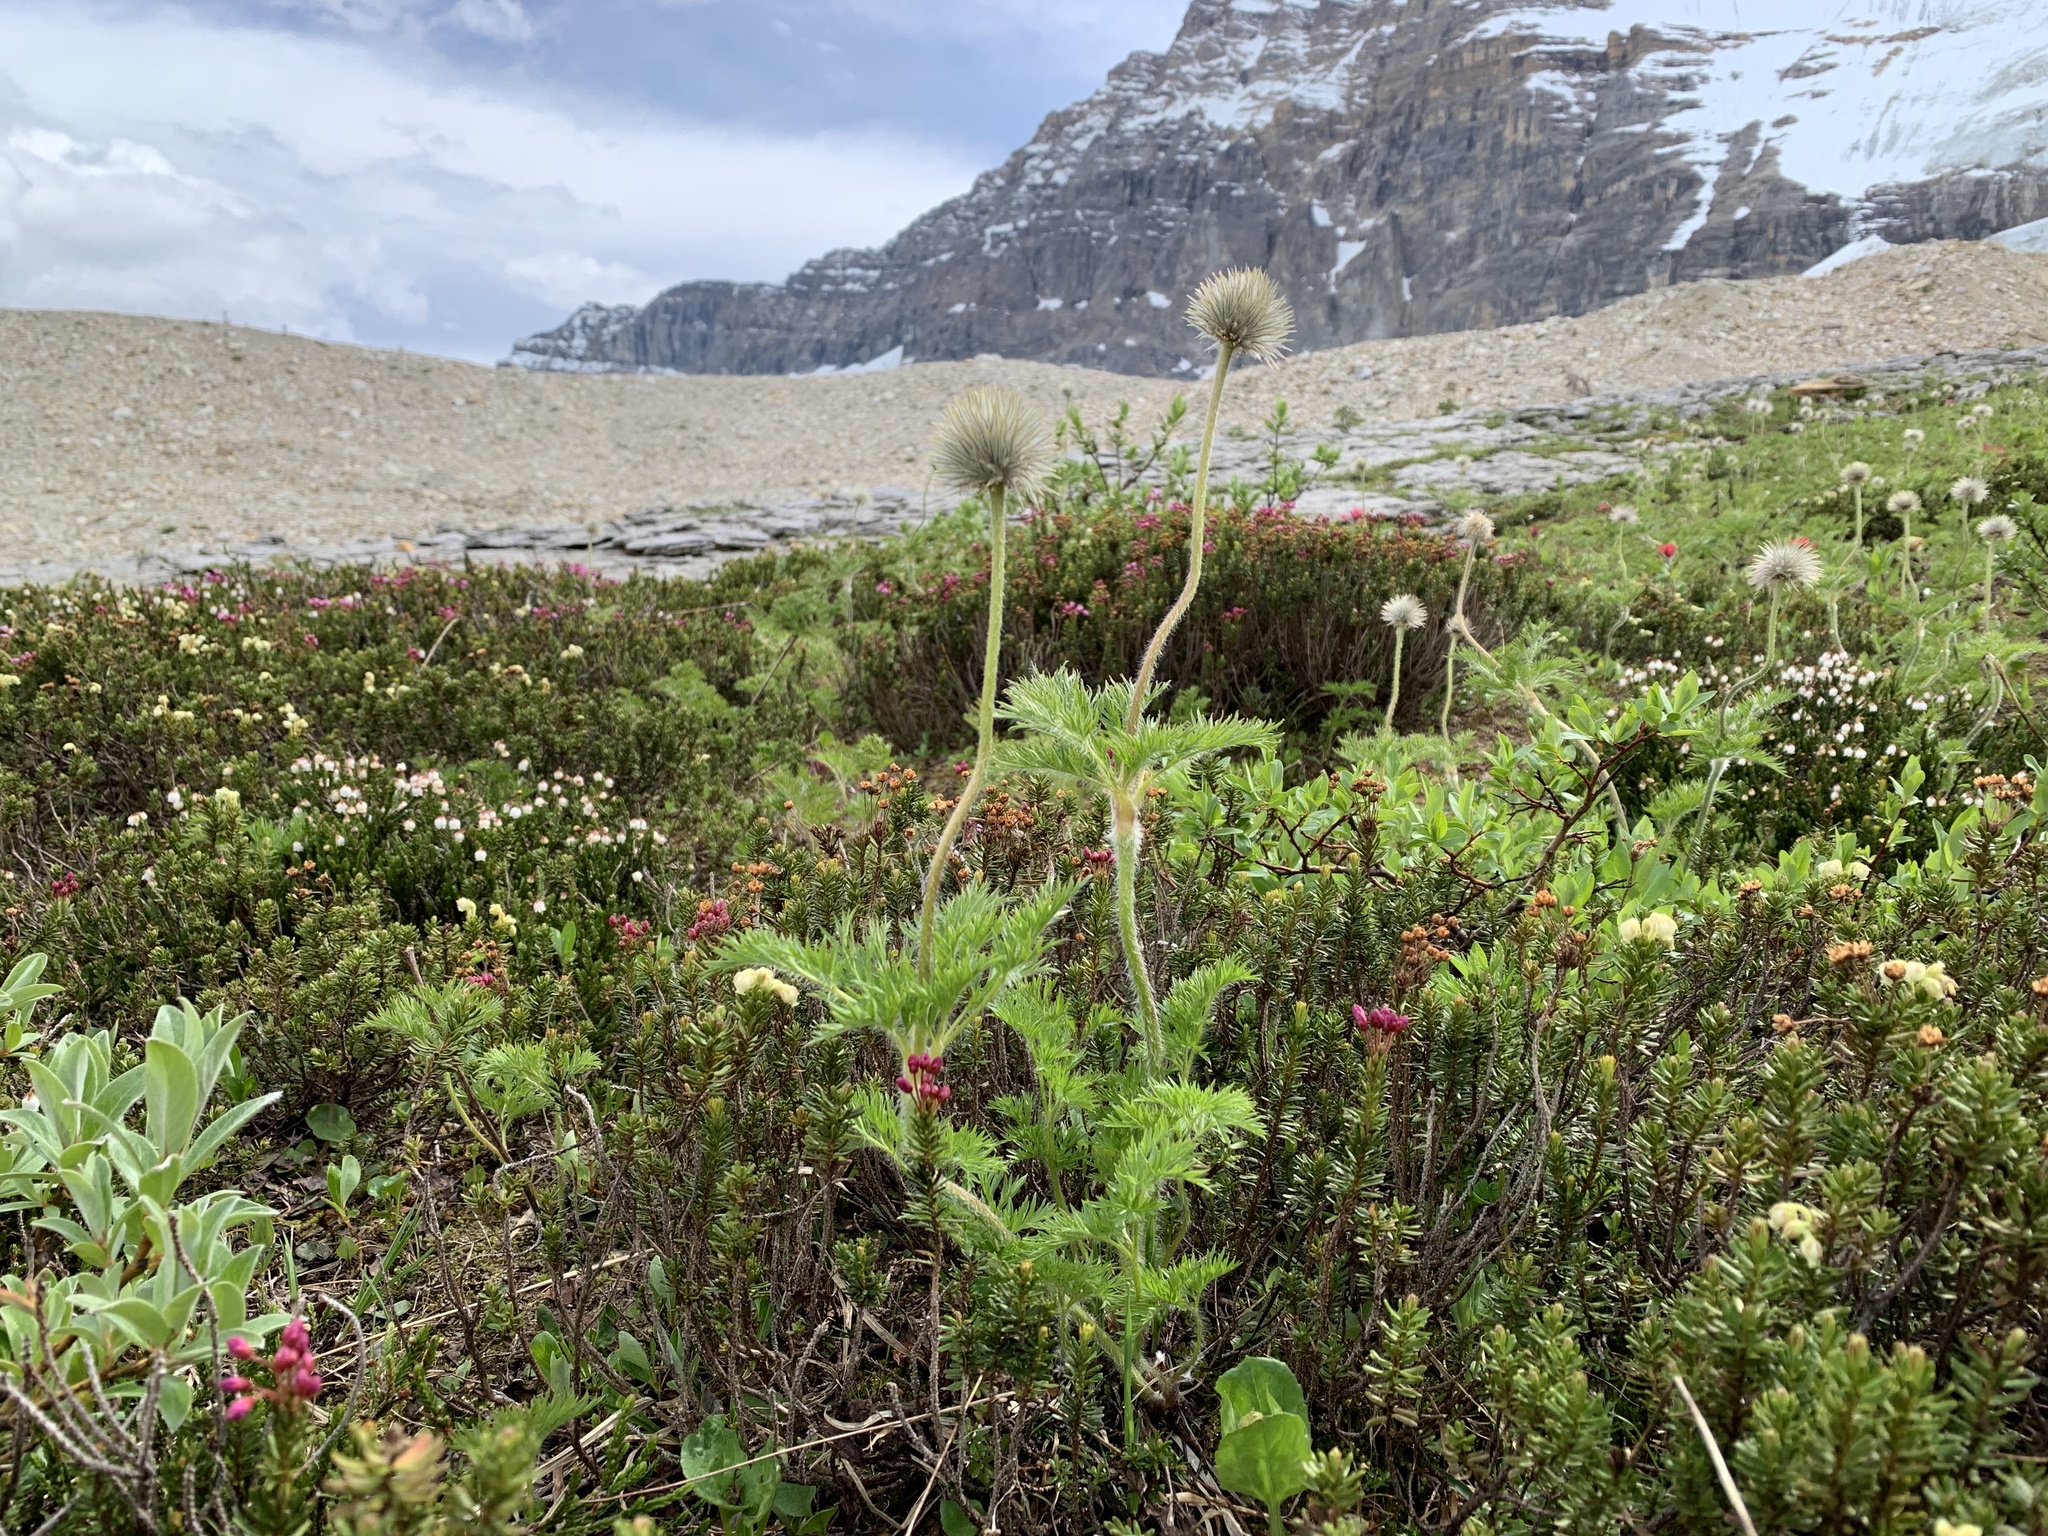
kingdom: Plantae
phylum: Tracheophyta
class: Magnoliopsida
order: Ranunculales
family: Ranunculaceae
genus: Pulsatilla
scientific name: Pulsatilla occidentalis
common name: Mountain pasqueflower
